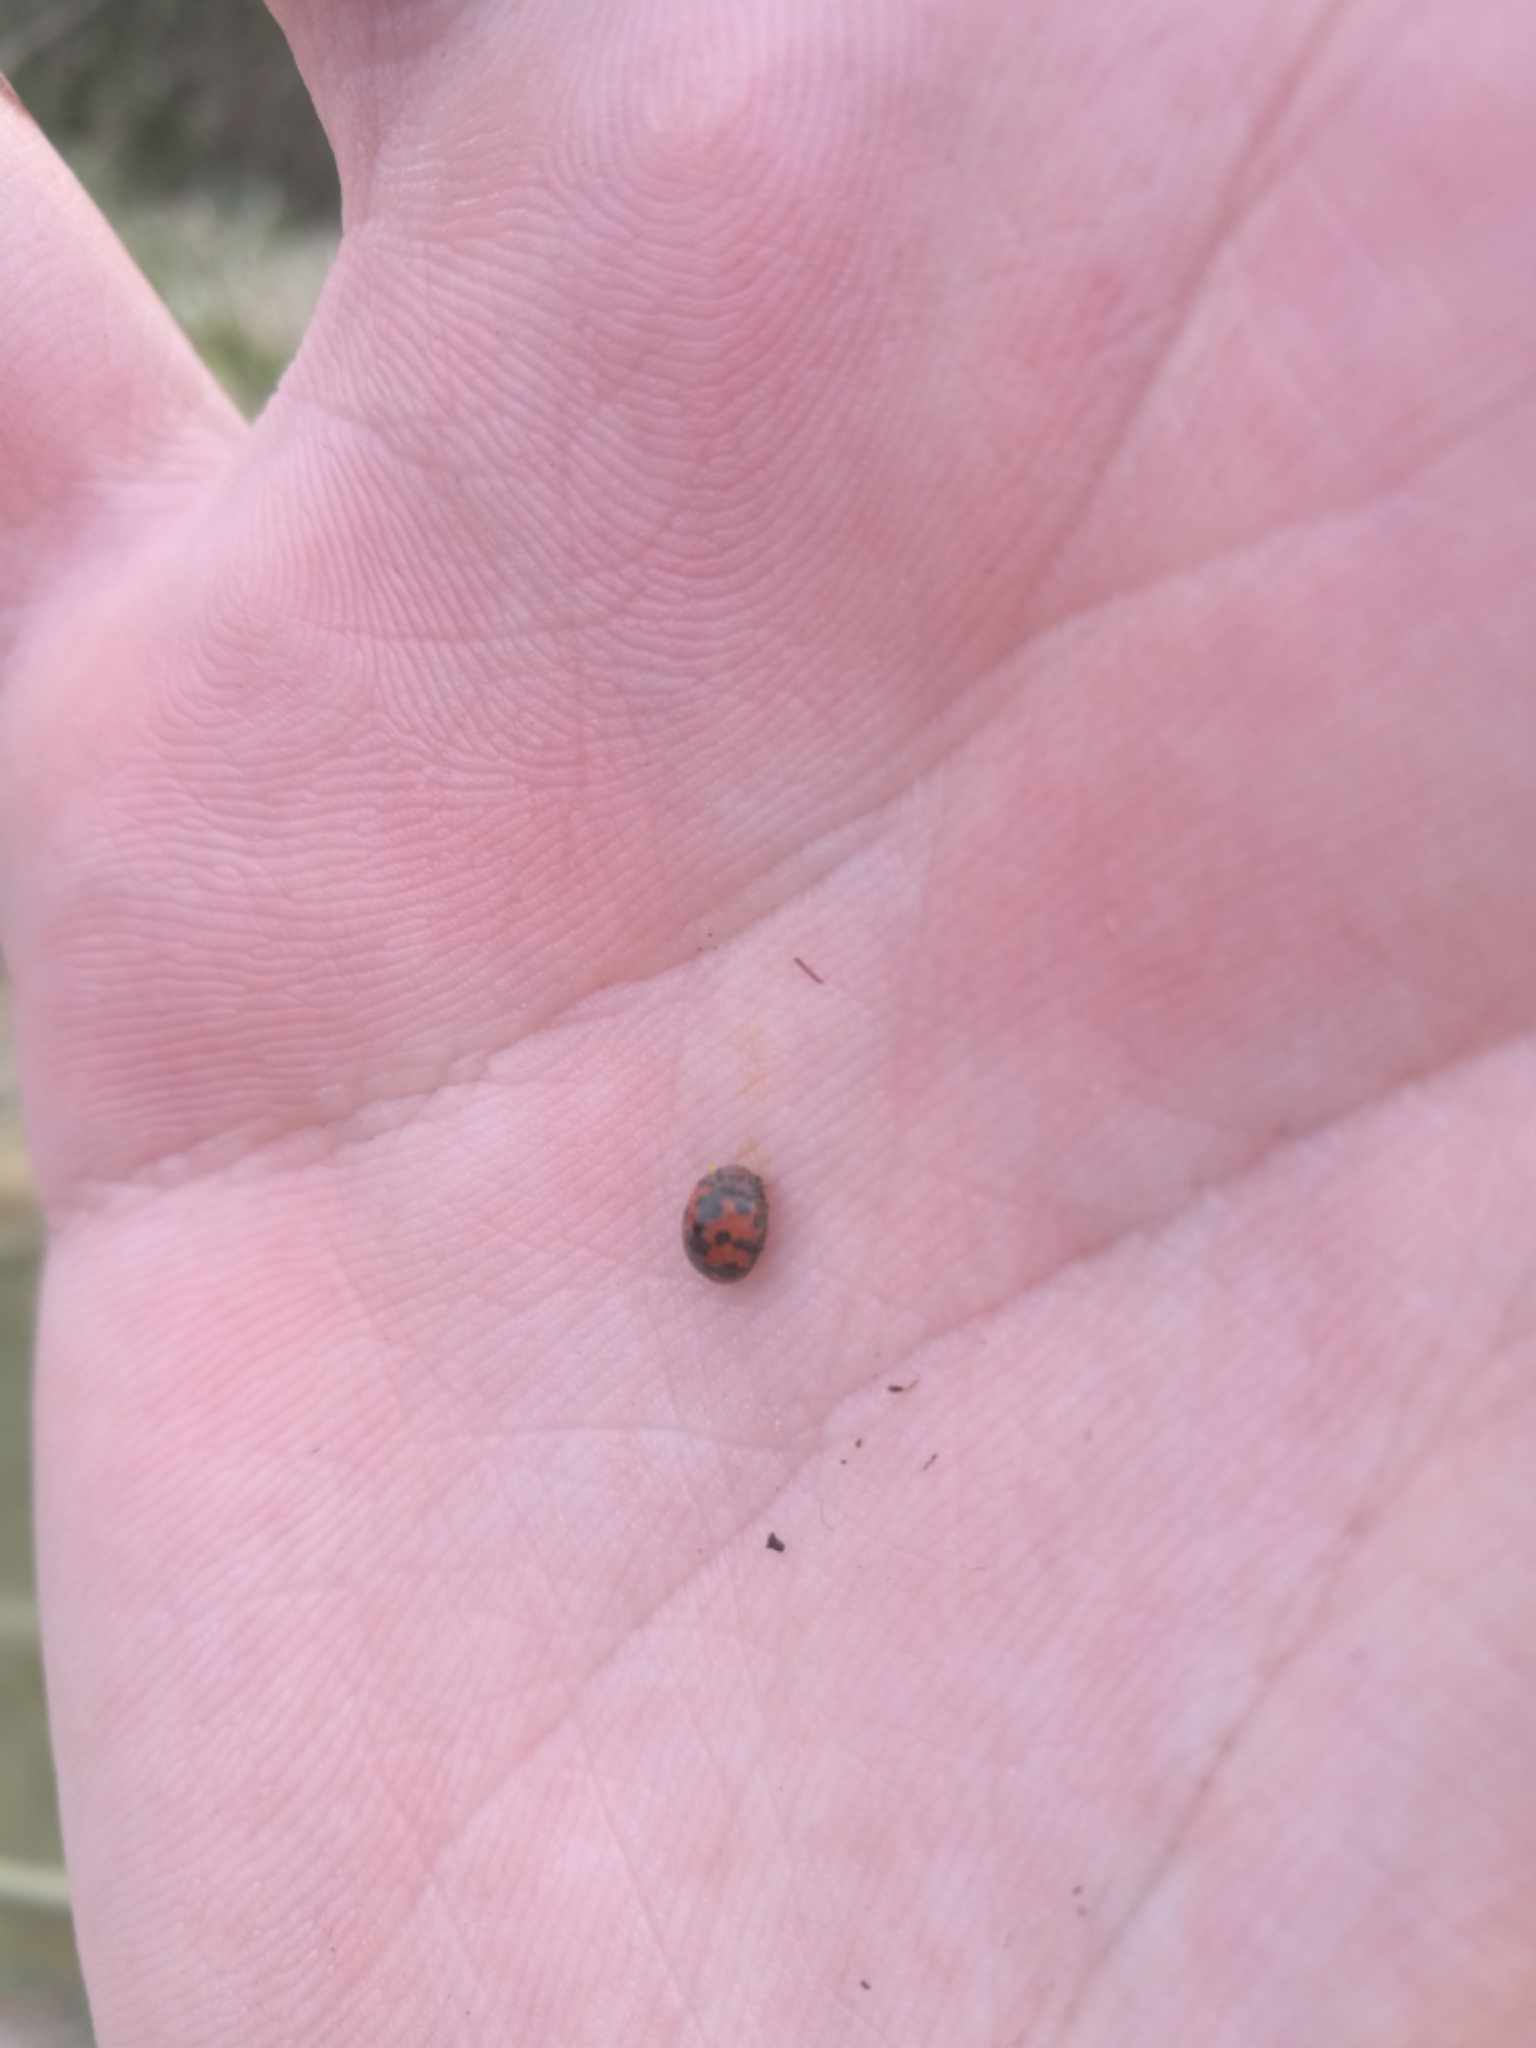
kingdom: Animalia
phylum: Arthropoda
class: Insecta
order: Coleoptera
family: Coccinellidae
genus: Subcoccinella
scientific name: Subcoccinella vigintiquatuorpunctata
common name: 24-spot ladybird
